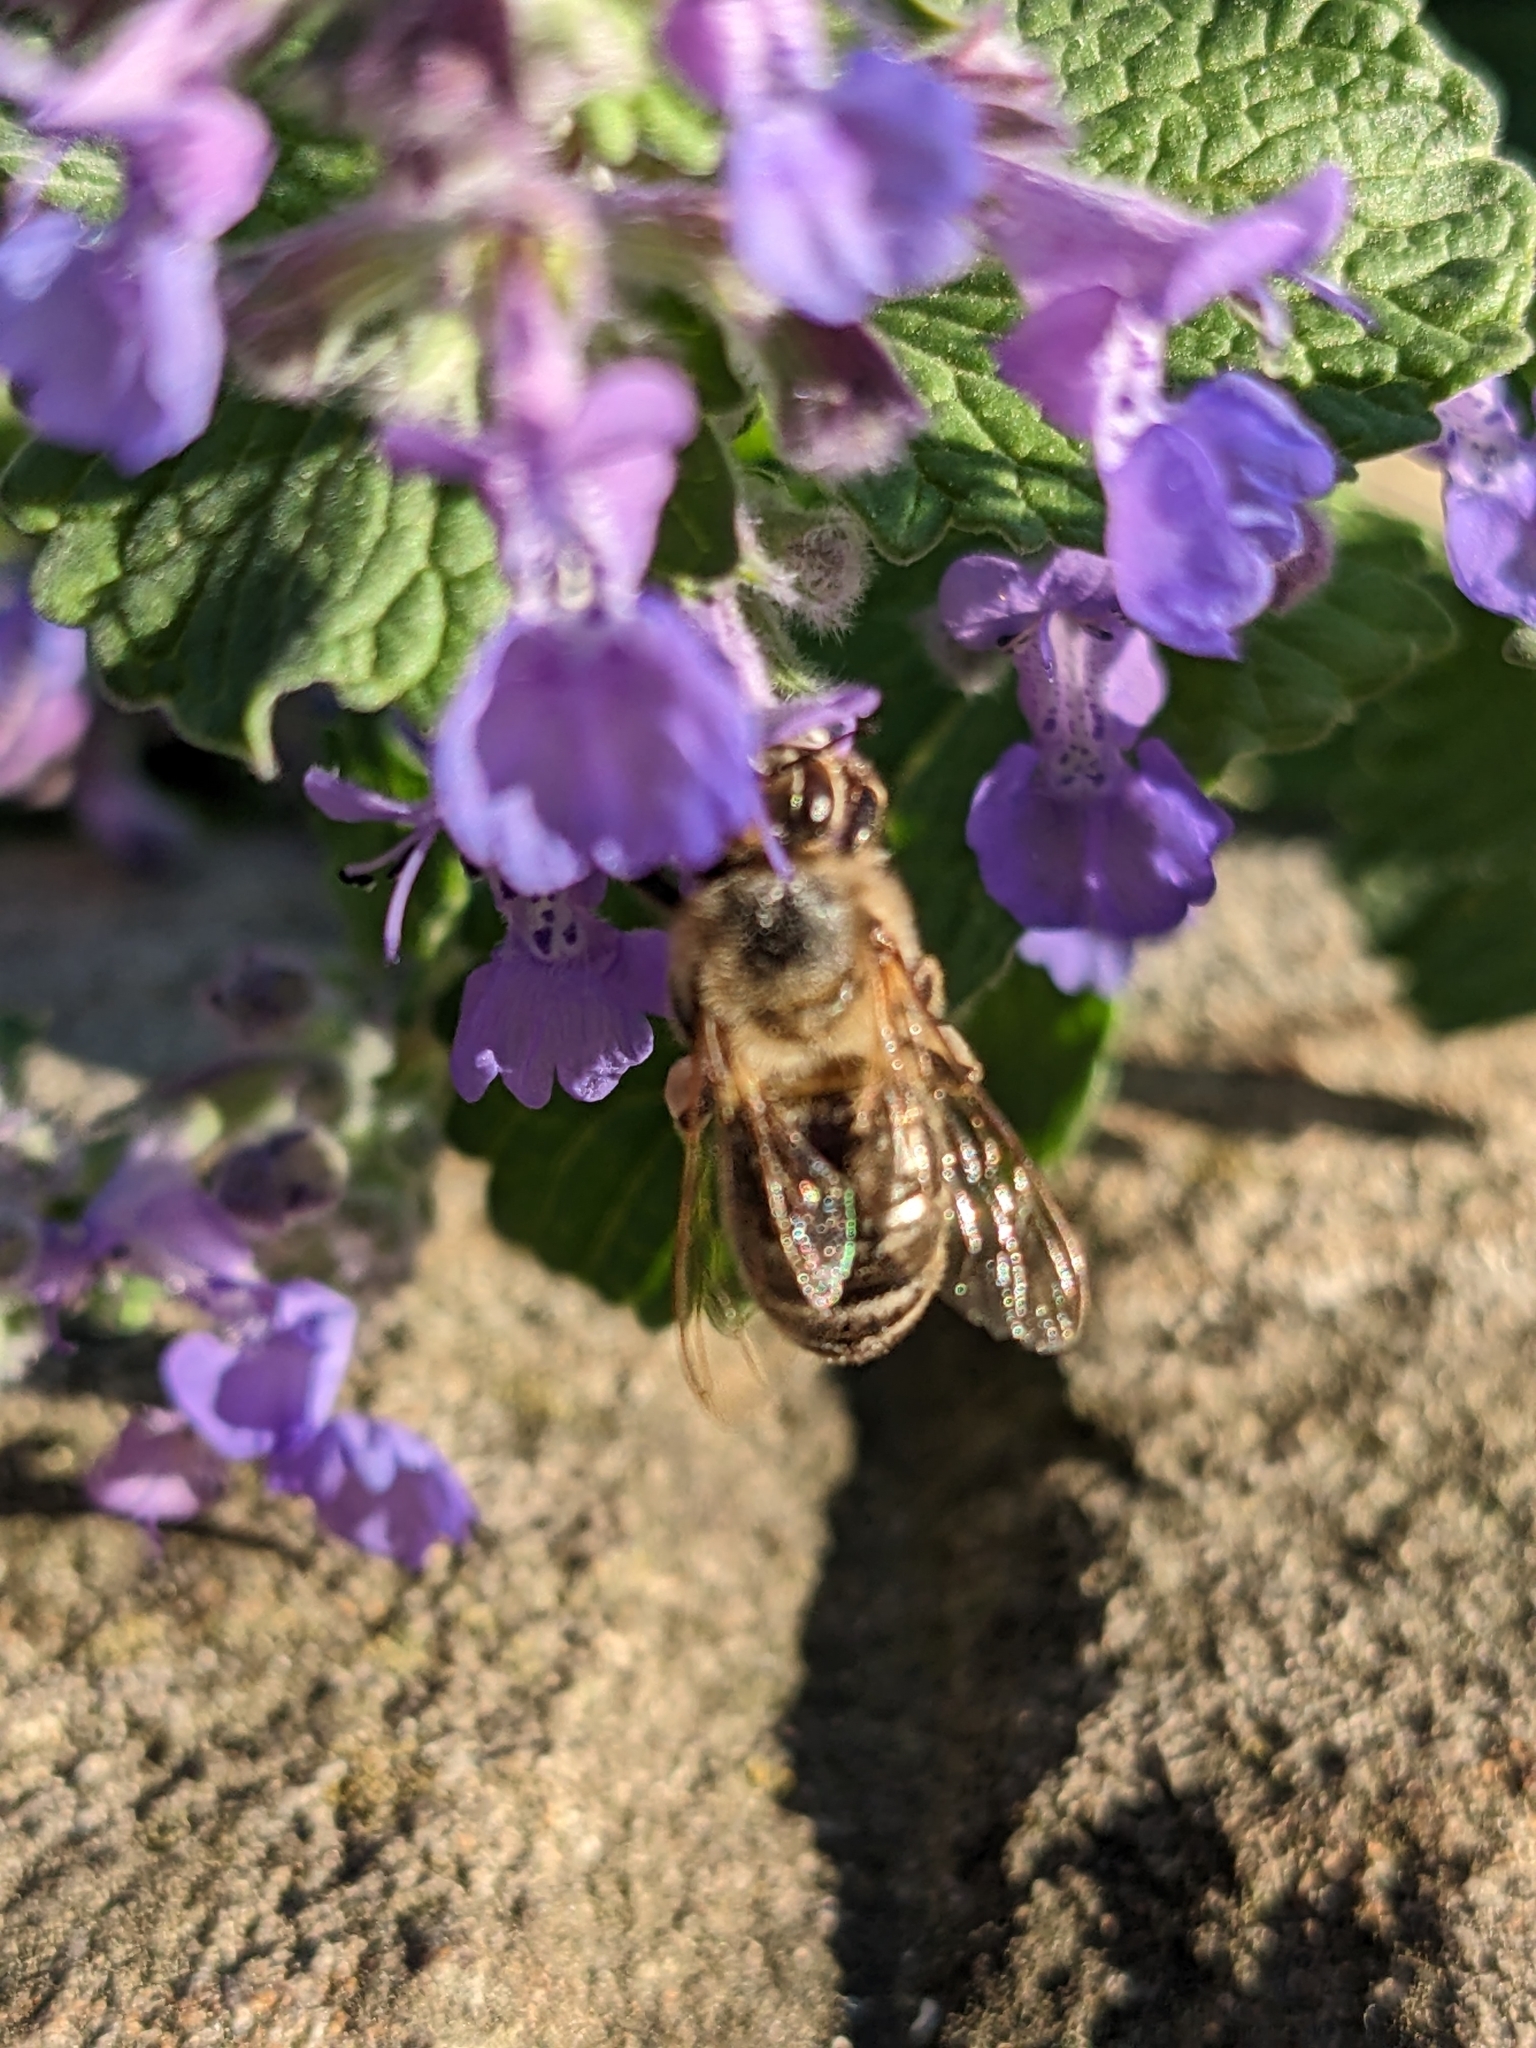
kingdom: Animalia
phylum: Arthropoda
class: Insecta
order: Hymenoptera
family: Apidae
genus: Apis
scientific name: Apis mellifera
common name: Honey bee
